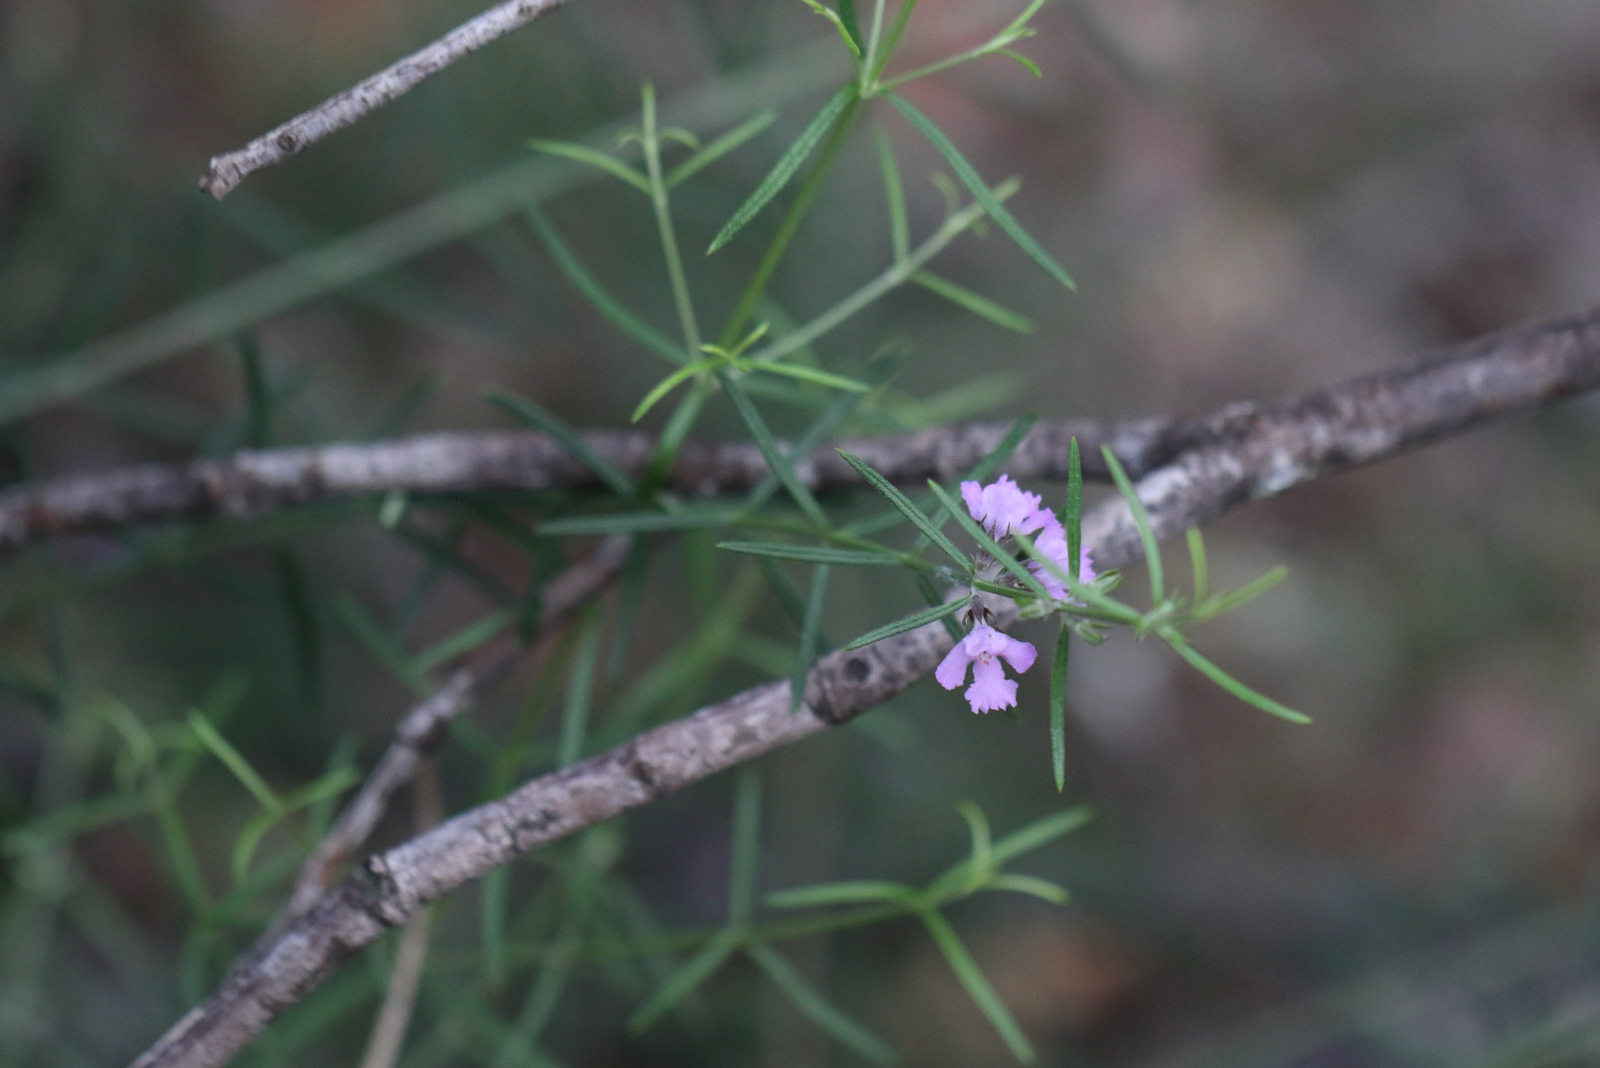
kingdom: Plantae
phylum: Tracheophyta
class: Magnoliopsida
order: Lamiales
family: Lamiaceae
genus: Westringia
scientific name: Westringia eremicola
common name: Slender western-rosemary
